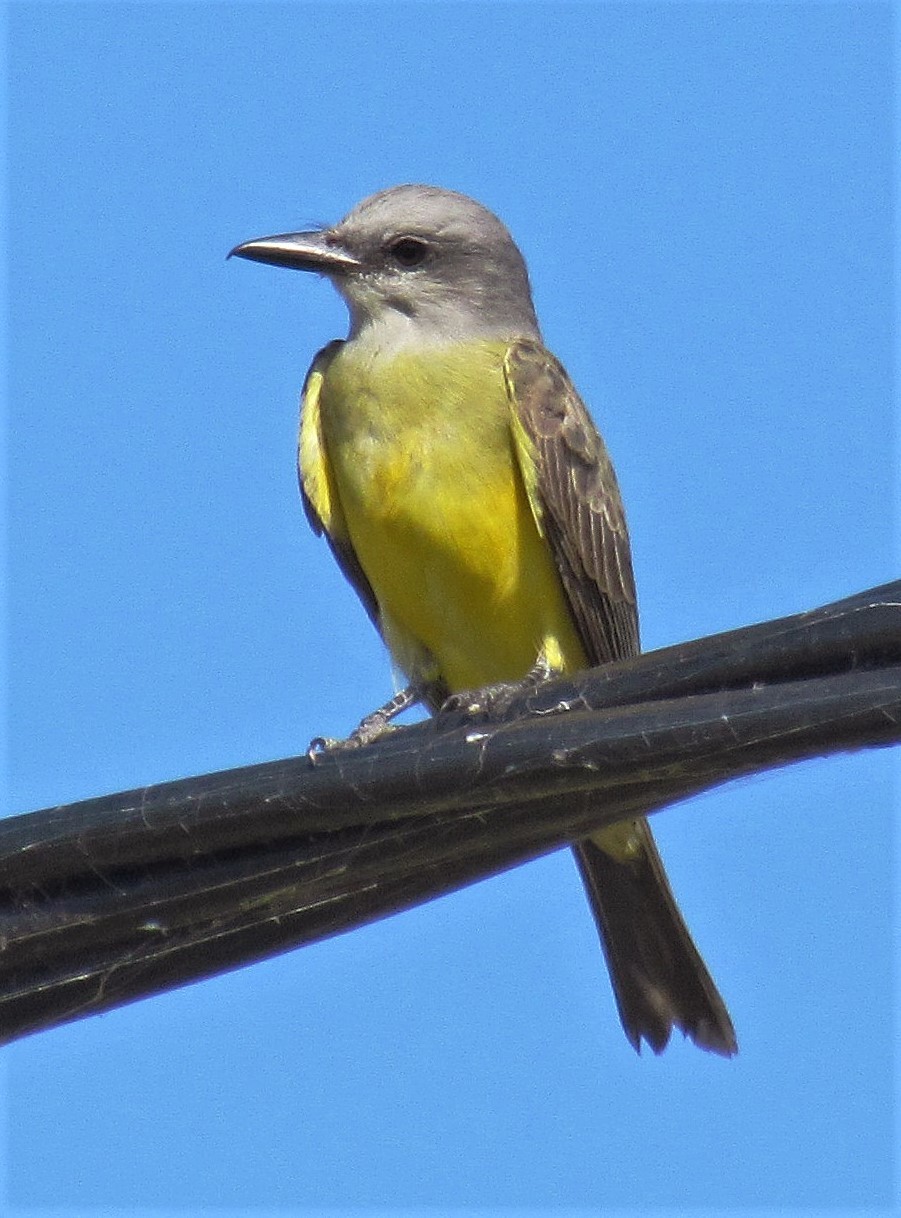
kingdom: Animalia
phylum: Chordata
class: Aves
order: Passeriformes
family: Tyrannidae
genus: Tyrannus
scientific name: Tyrannus melancholicus
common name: Tropical kingbird
